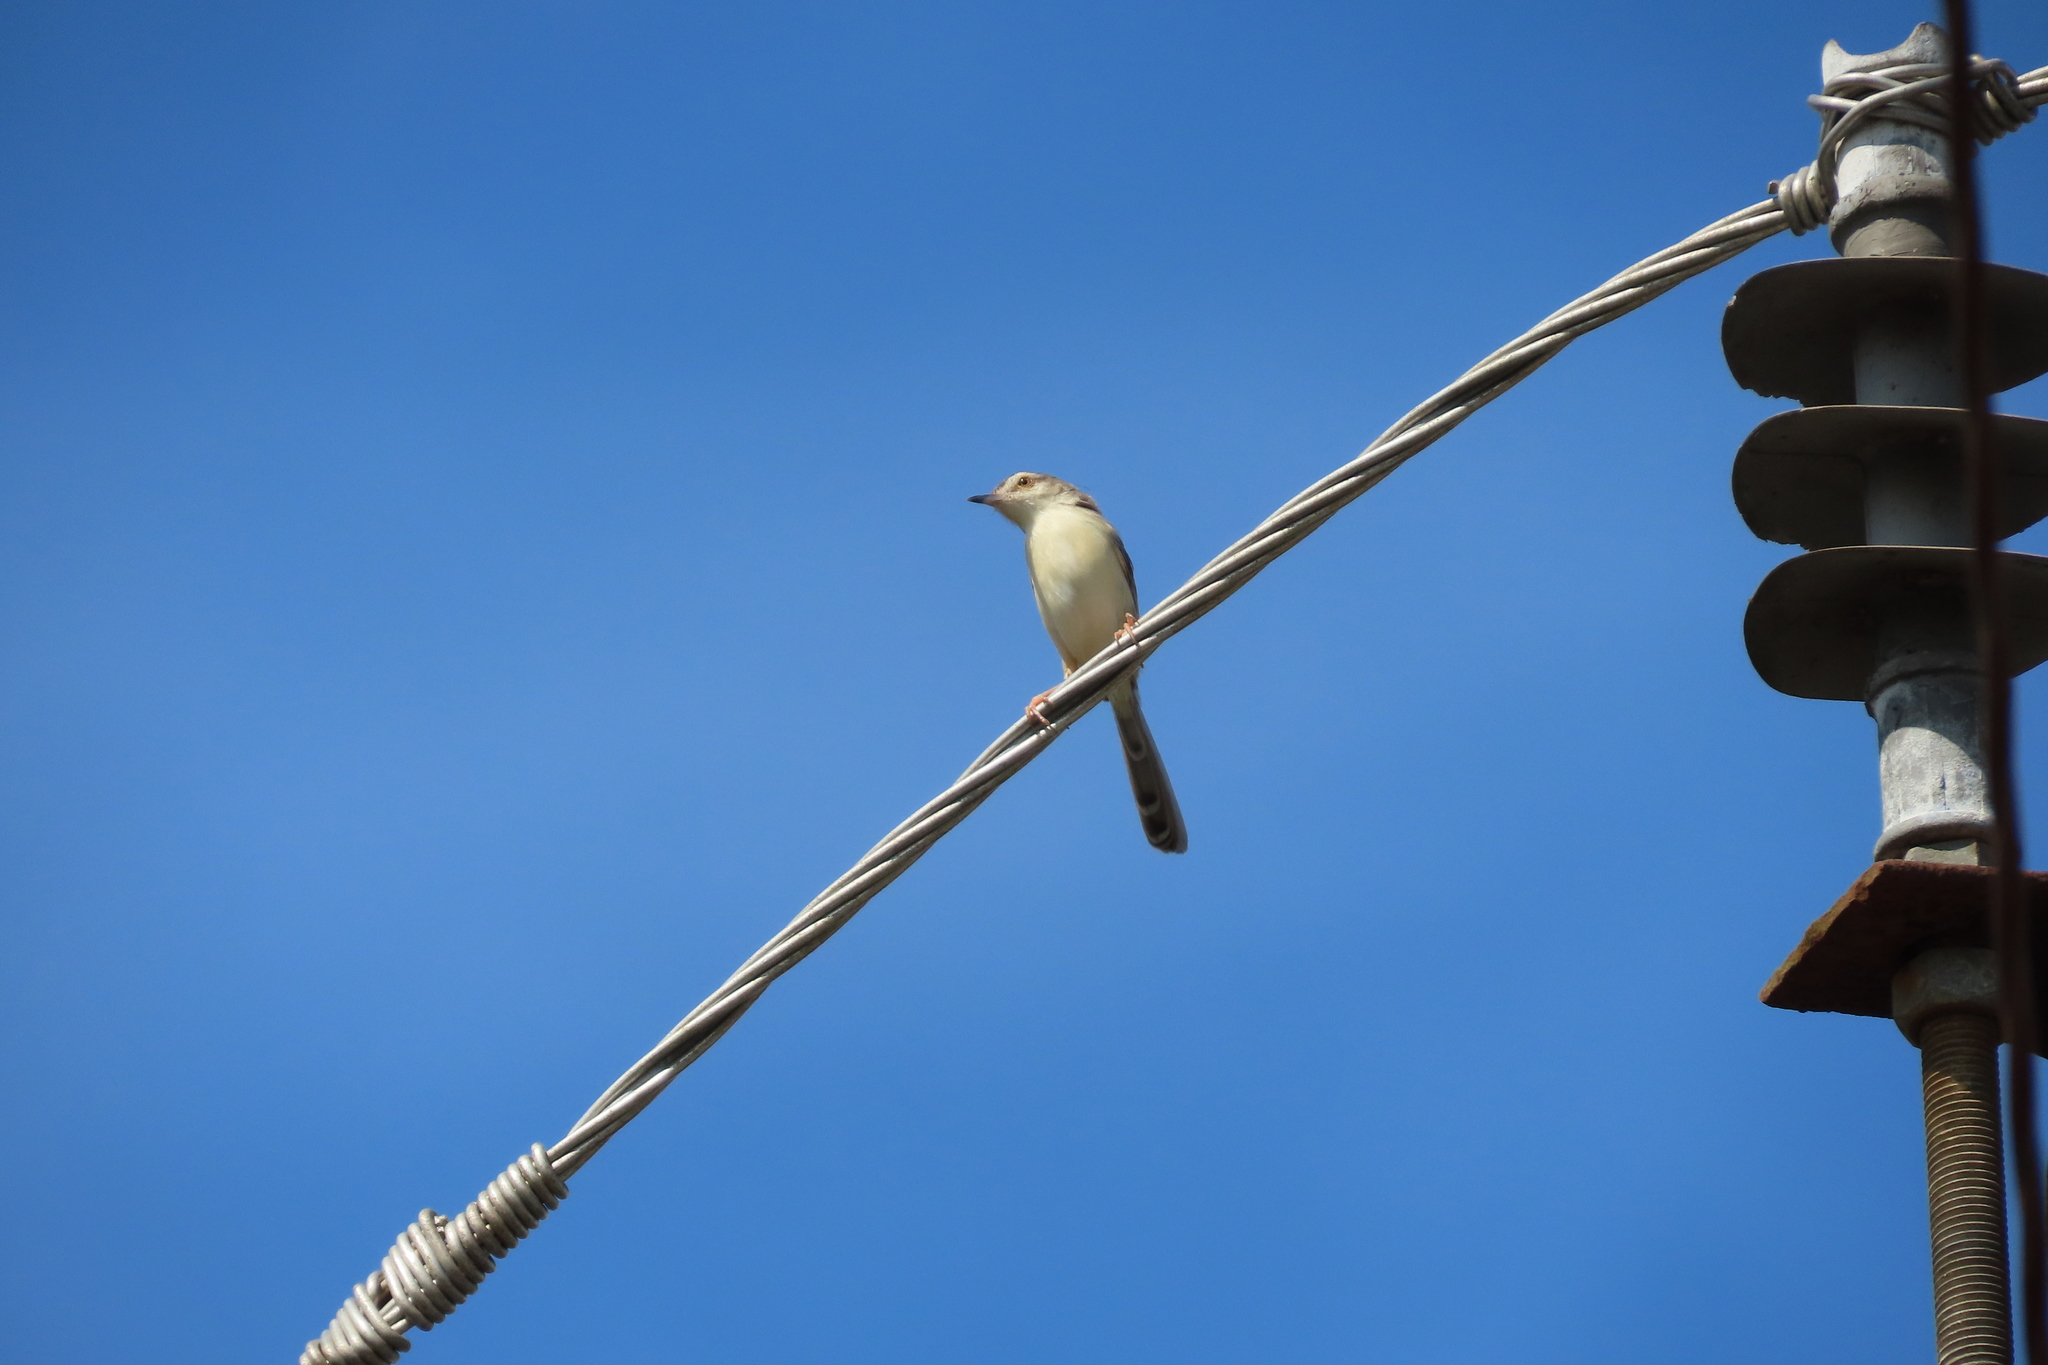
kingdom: Animalia
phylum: Chordata
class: Aves
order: Passeriformes
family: Cisticolidae
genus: Prinia
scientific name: Prinia inornata
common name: Plain prinia
